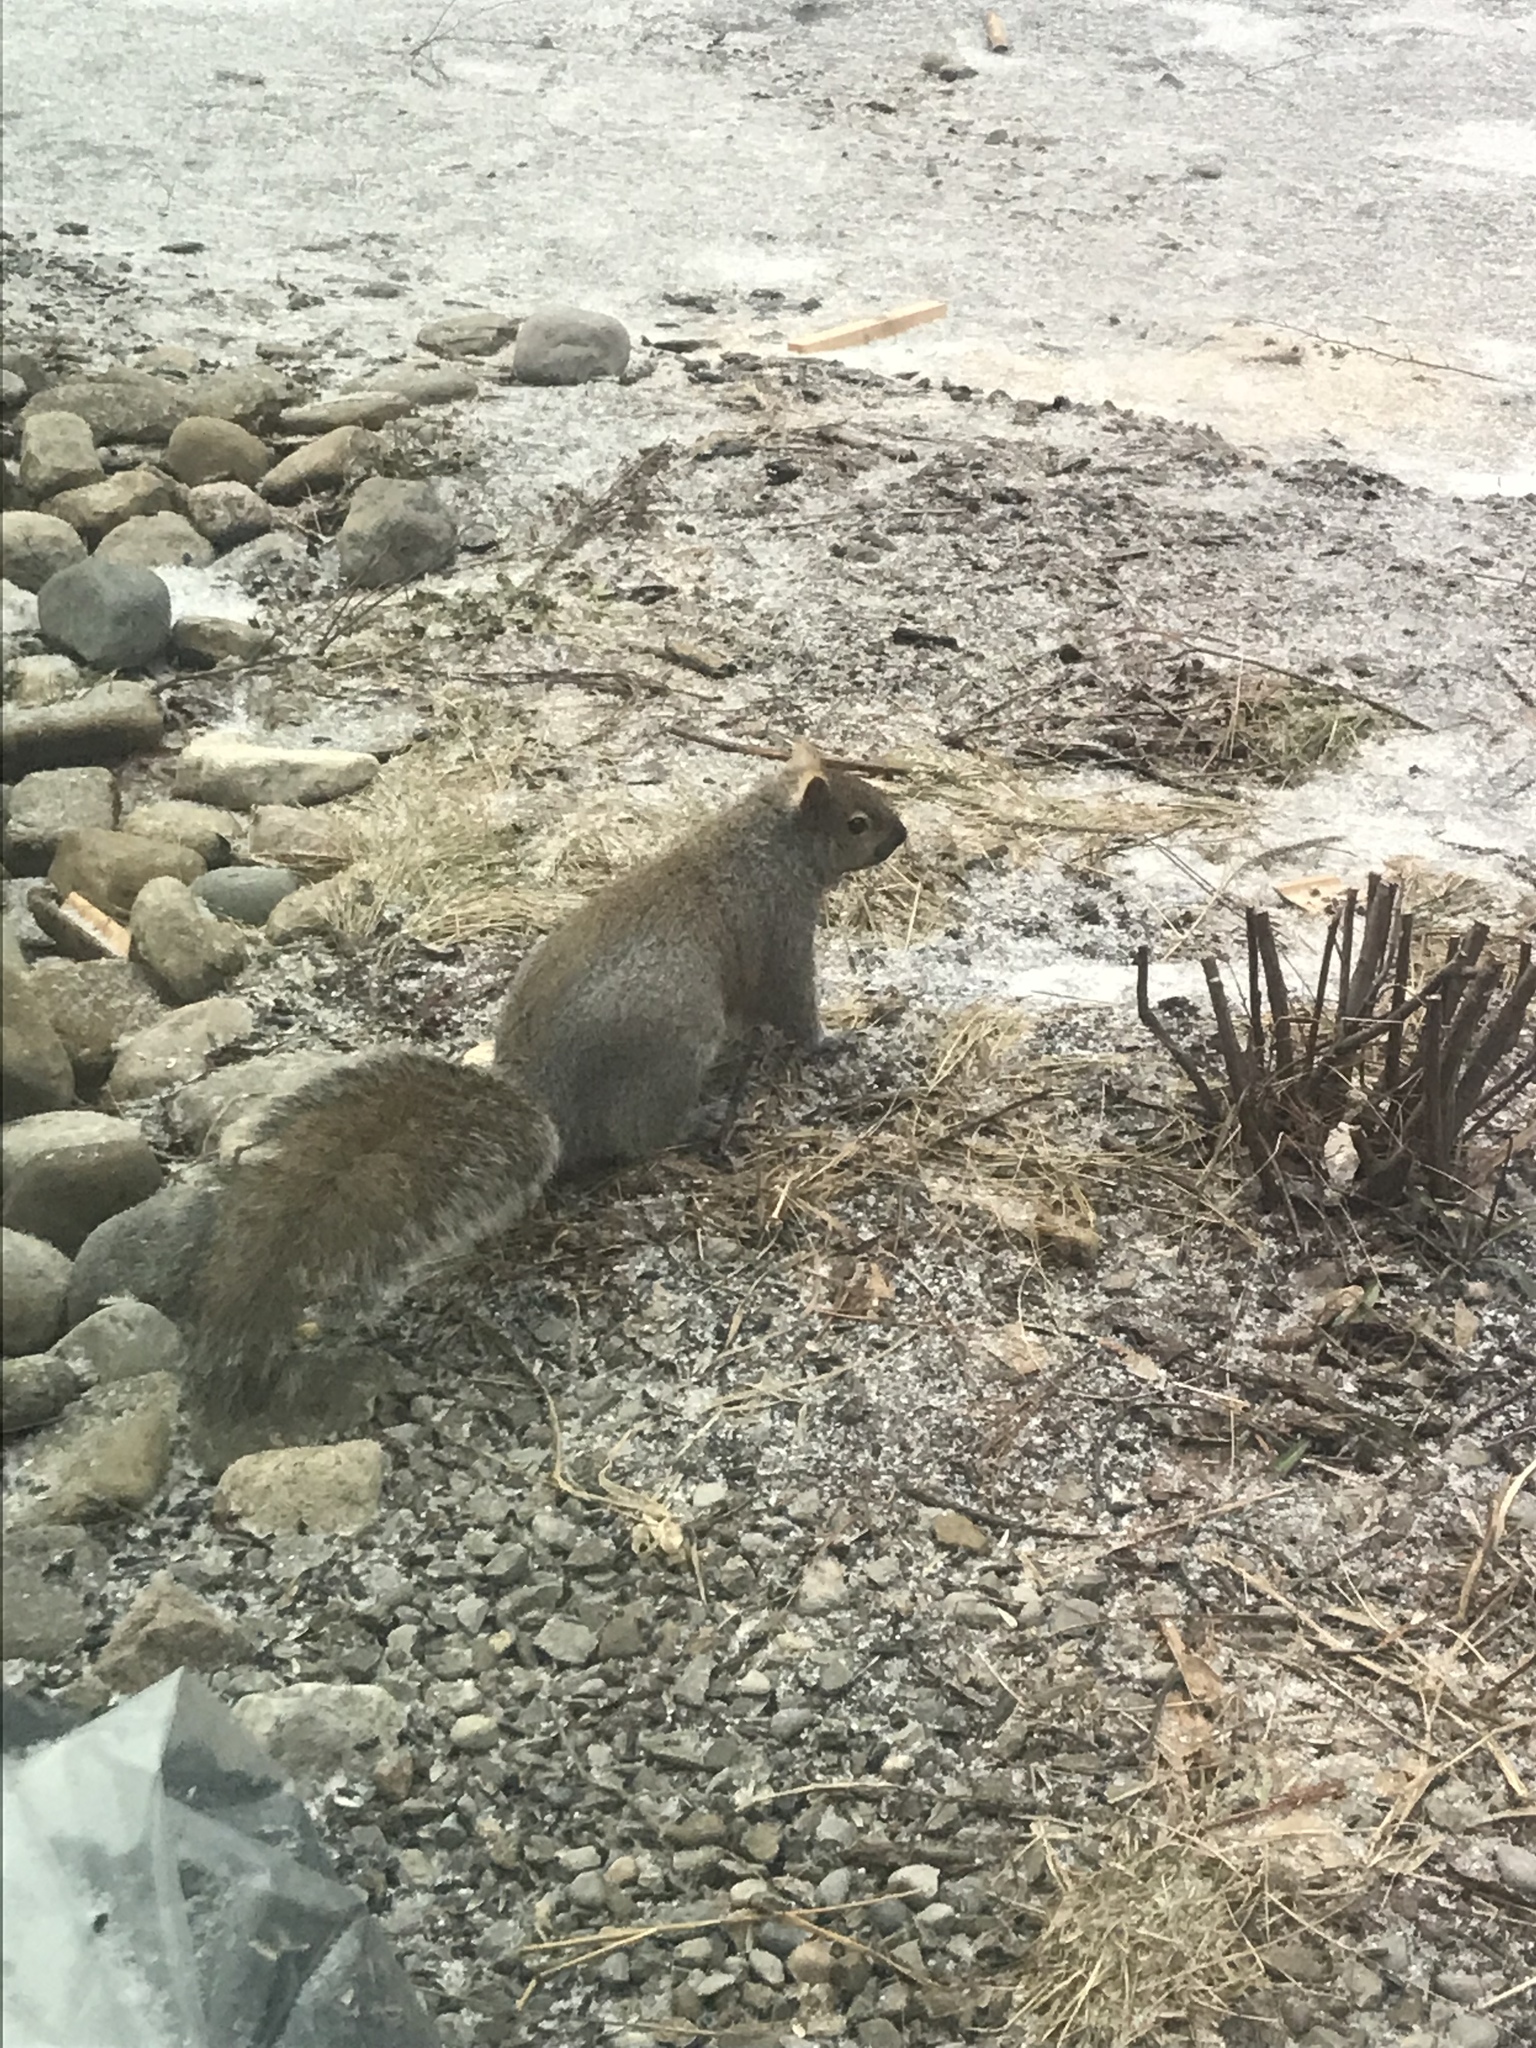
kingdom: Animalia
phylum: Chordata
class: Mammalia
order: Rodentia
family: Sciuridae
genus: Sciurus
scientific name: Sciurus carolinensis
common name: Eastern gray squirrel
